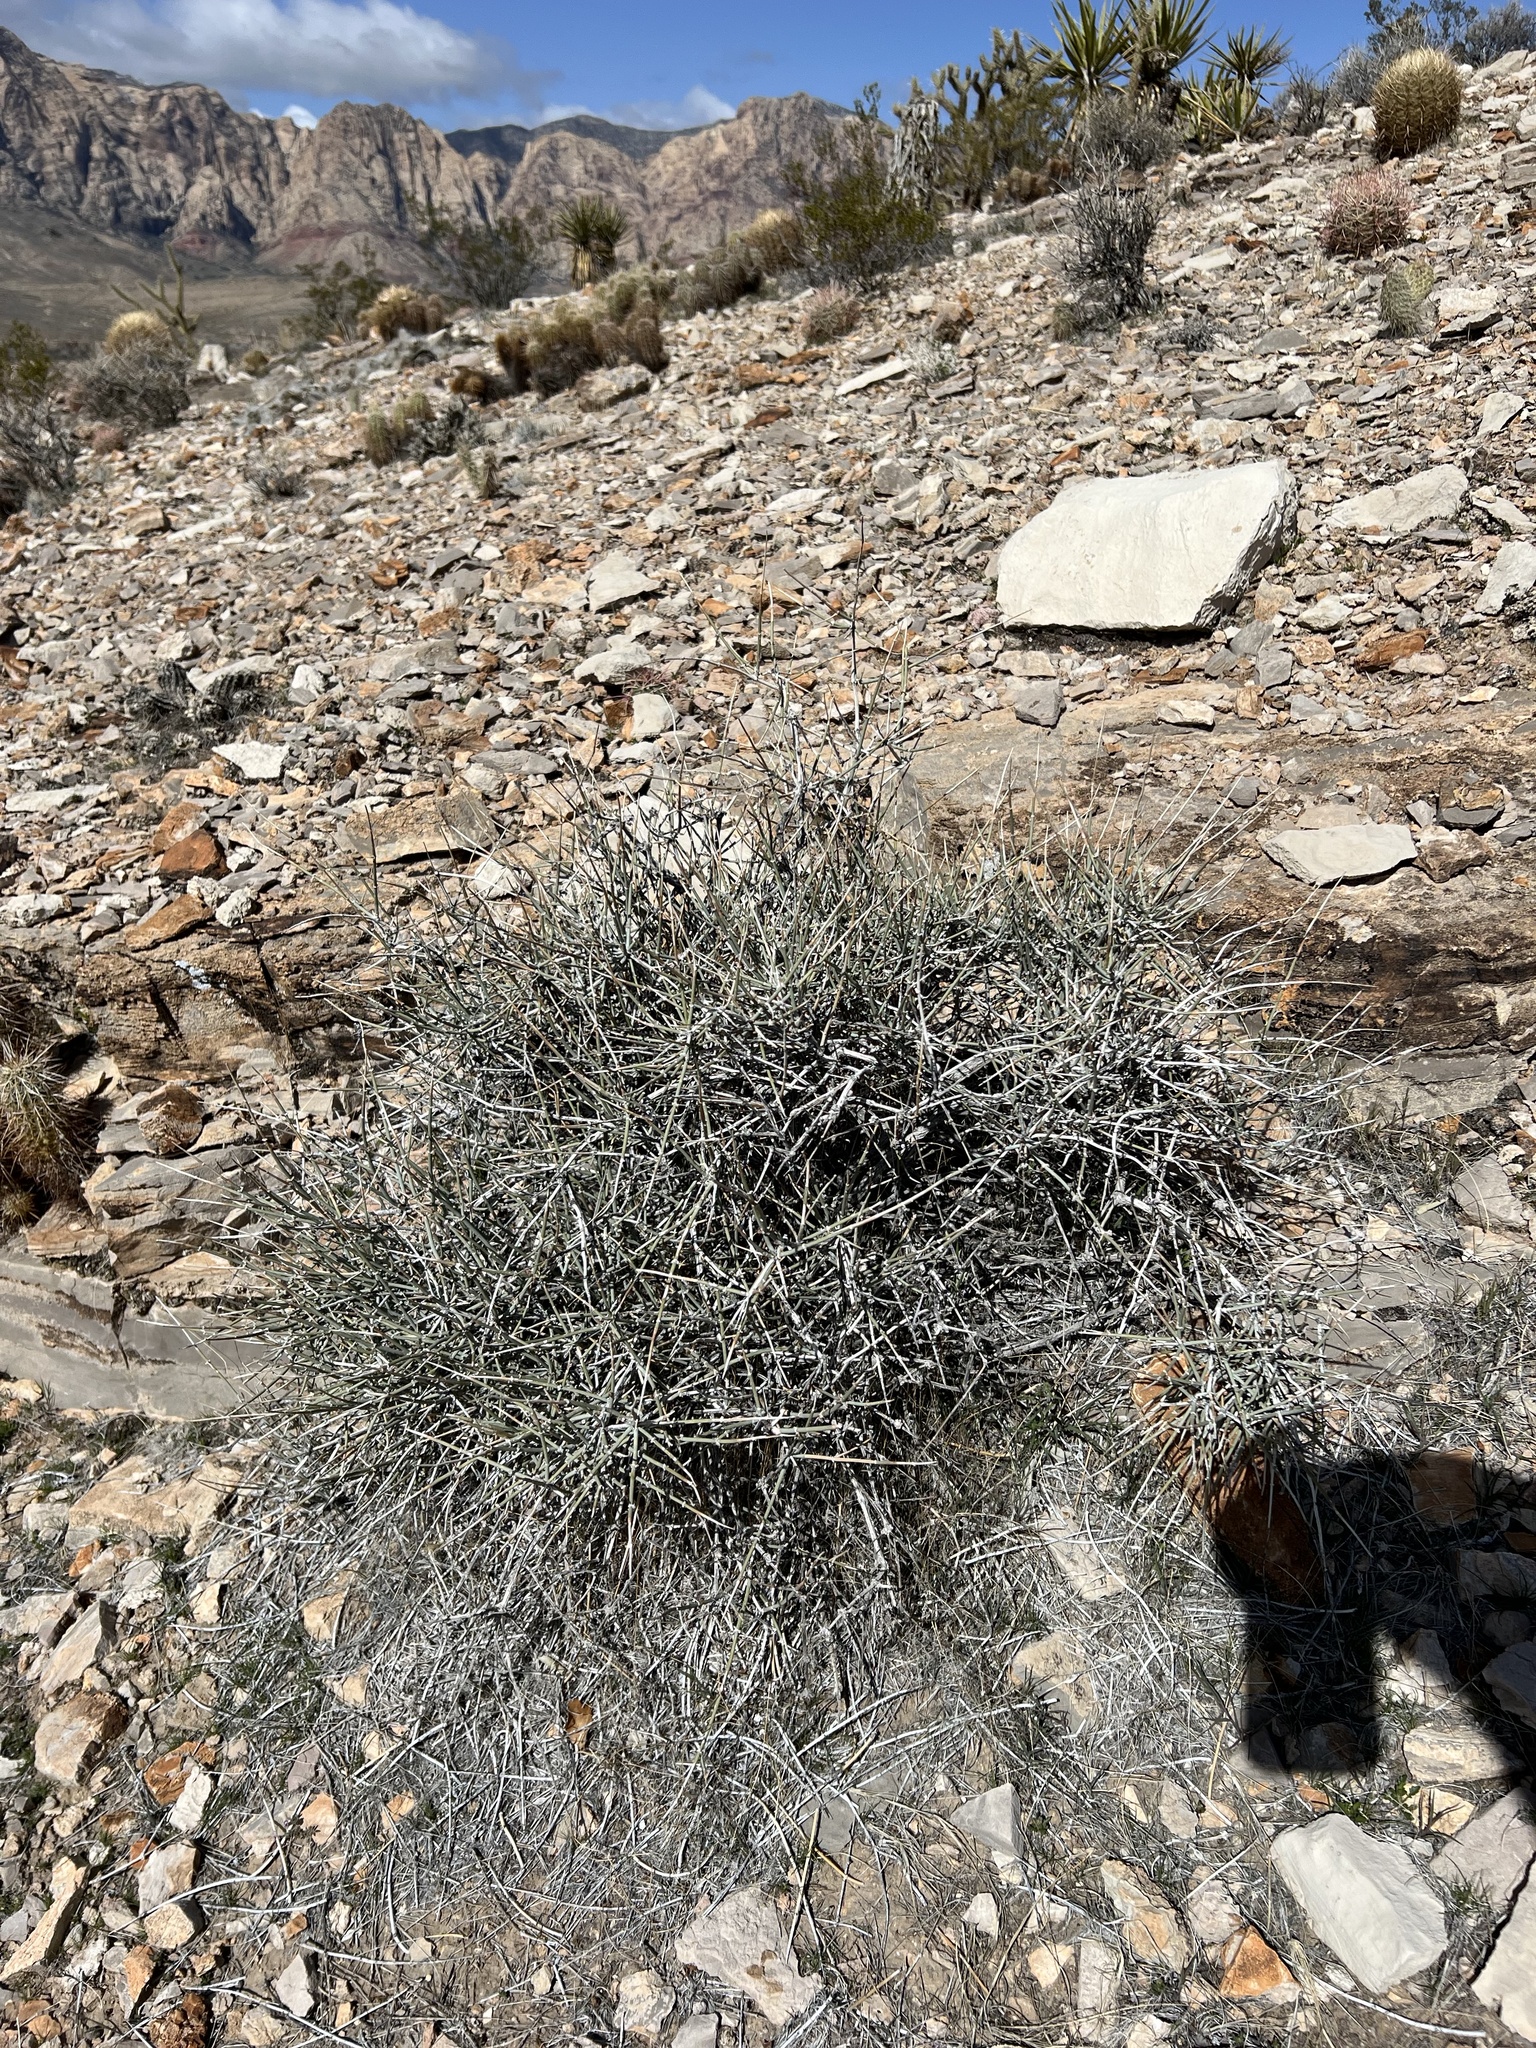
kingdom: Plantae
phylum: Tracheophyta
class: Gnetopsida
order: Ephedrales
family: Ephedraceae
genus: Ephedra
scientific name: Ephedra nevadensis
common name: Gray ephedra
